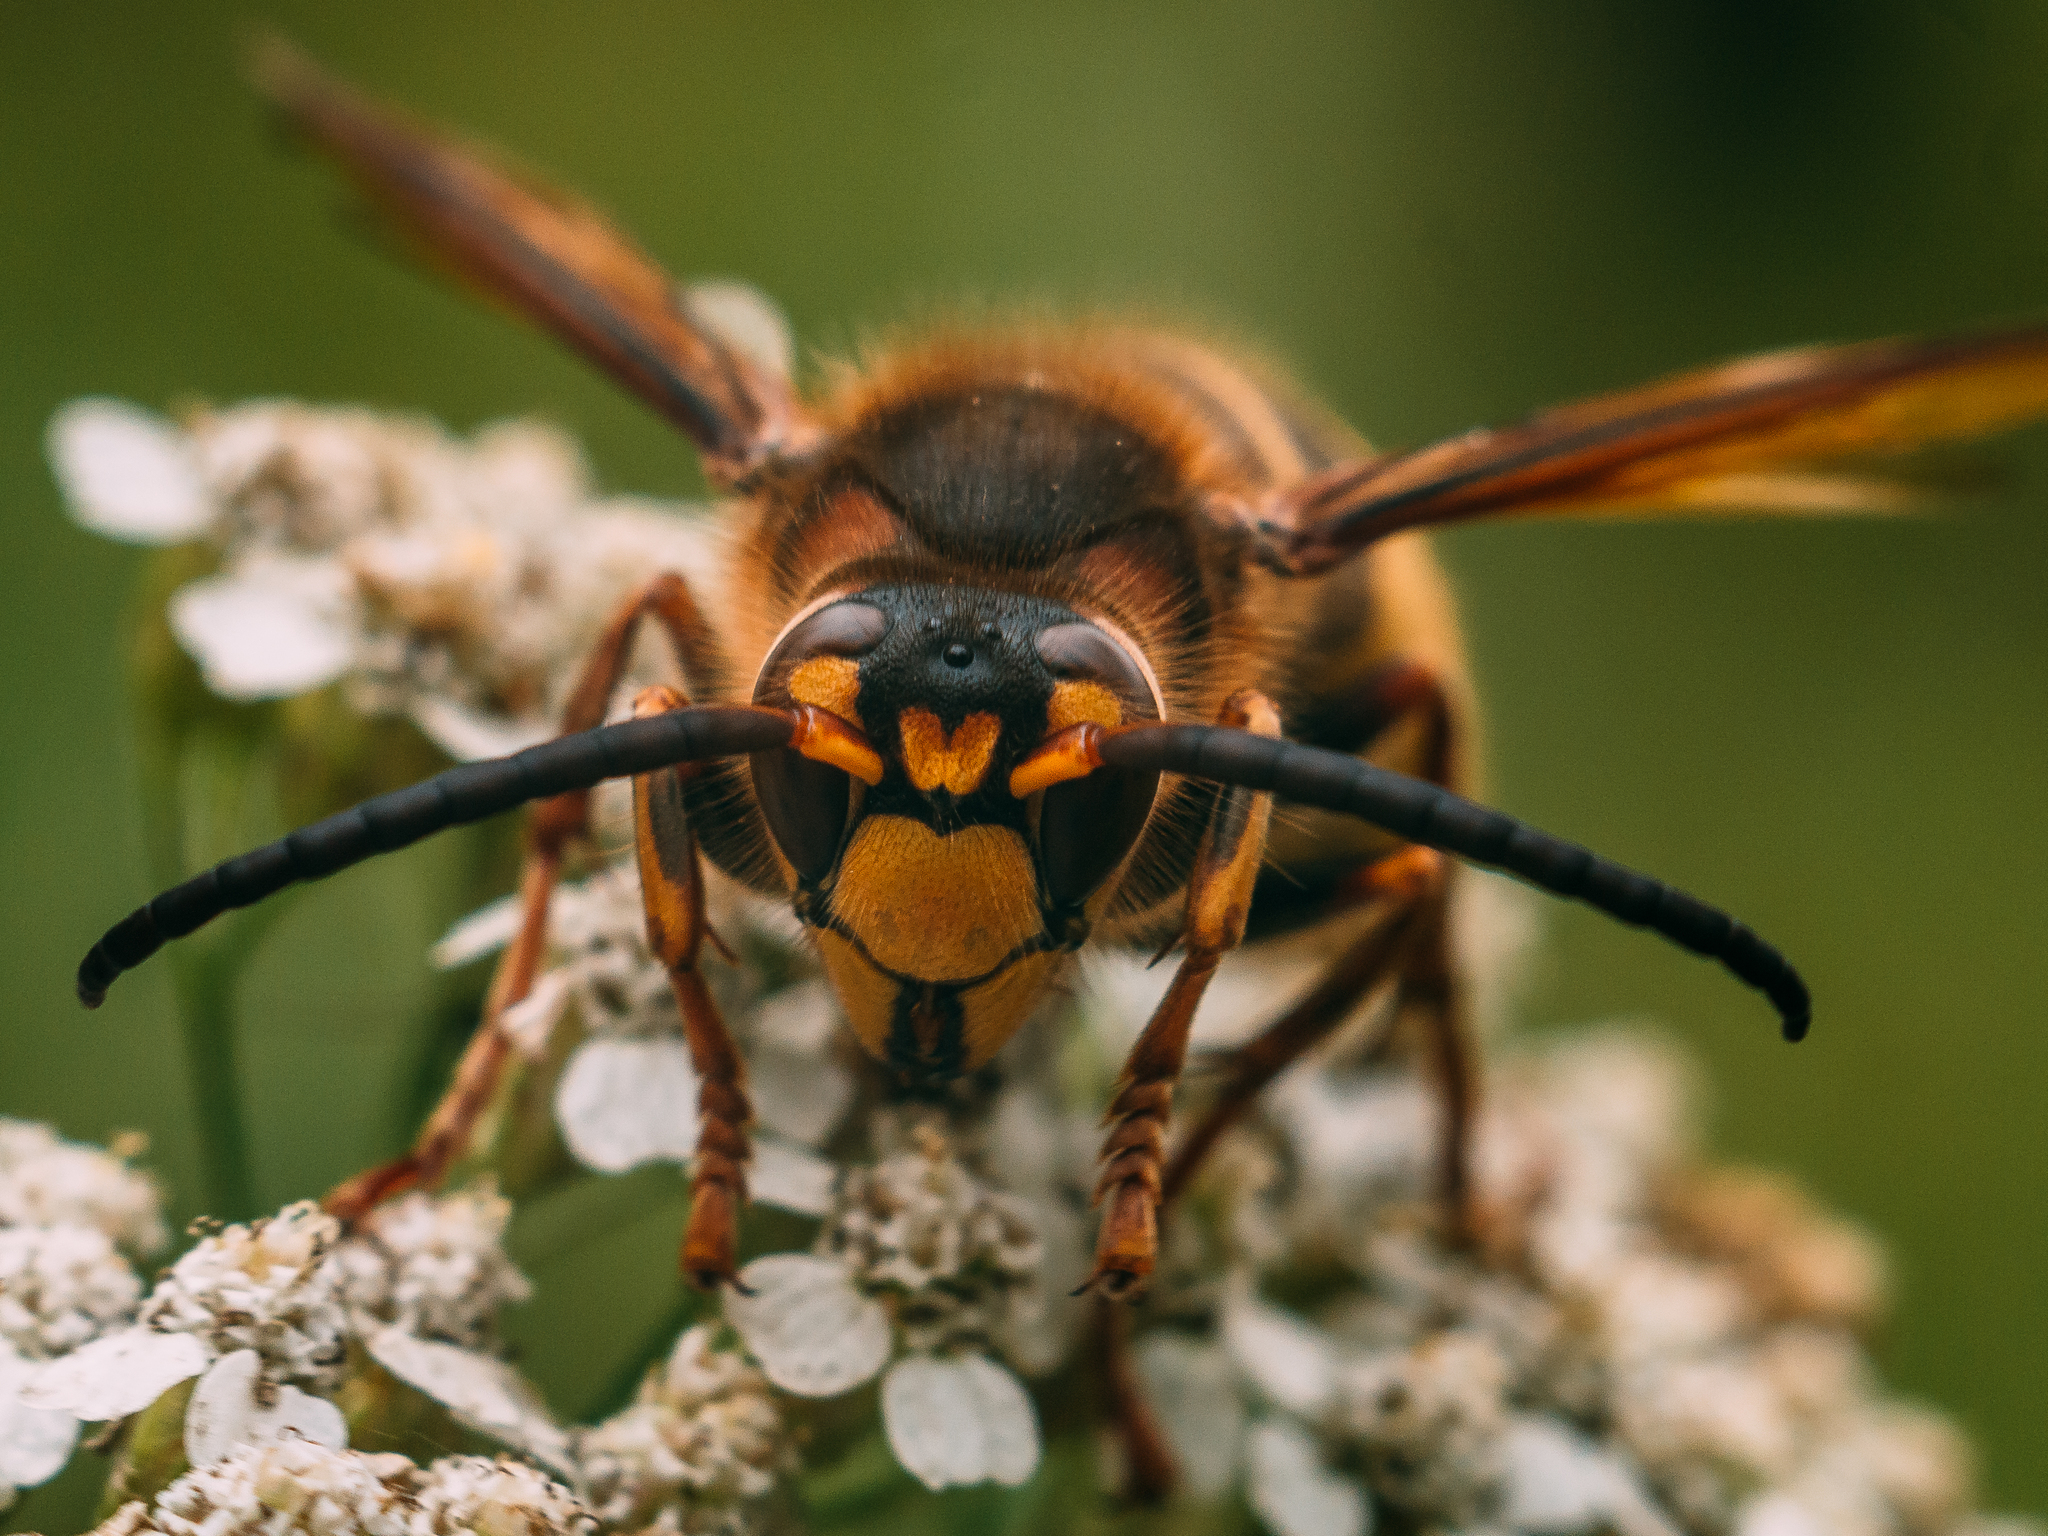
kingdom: Animalia
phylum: Arthropoda
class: Insecta
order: Hymenoptera
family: Vespidae
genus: Vespa
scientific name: Vespa crabro
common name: Hornet
